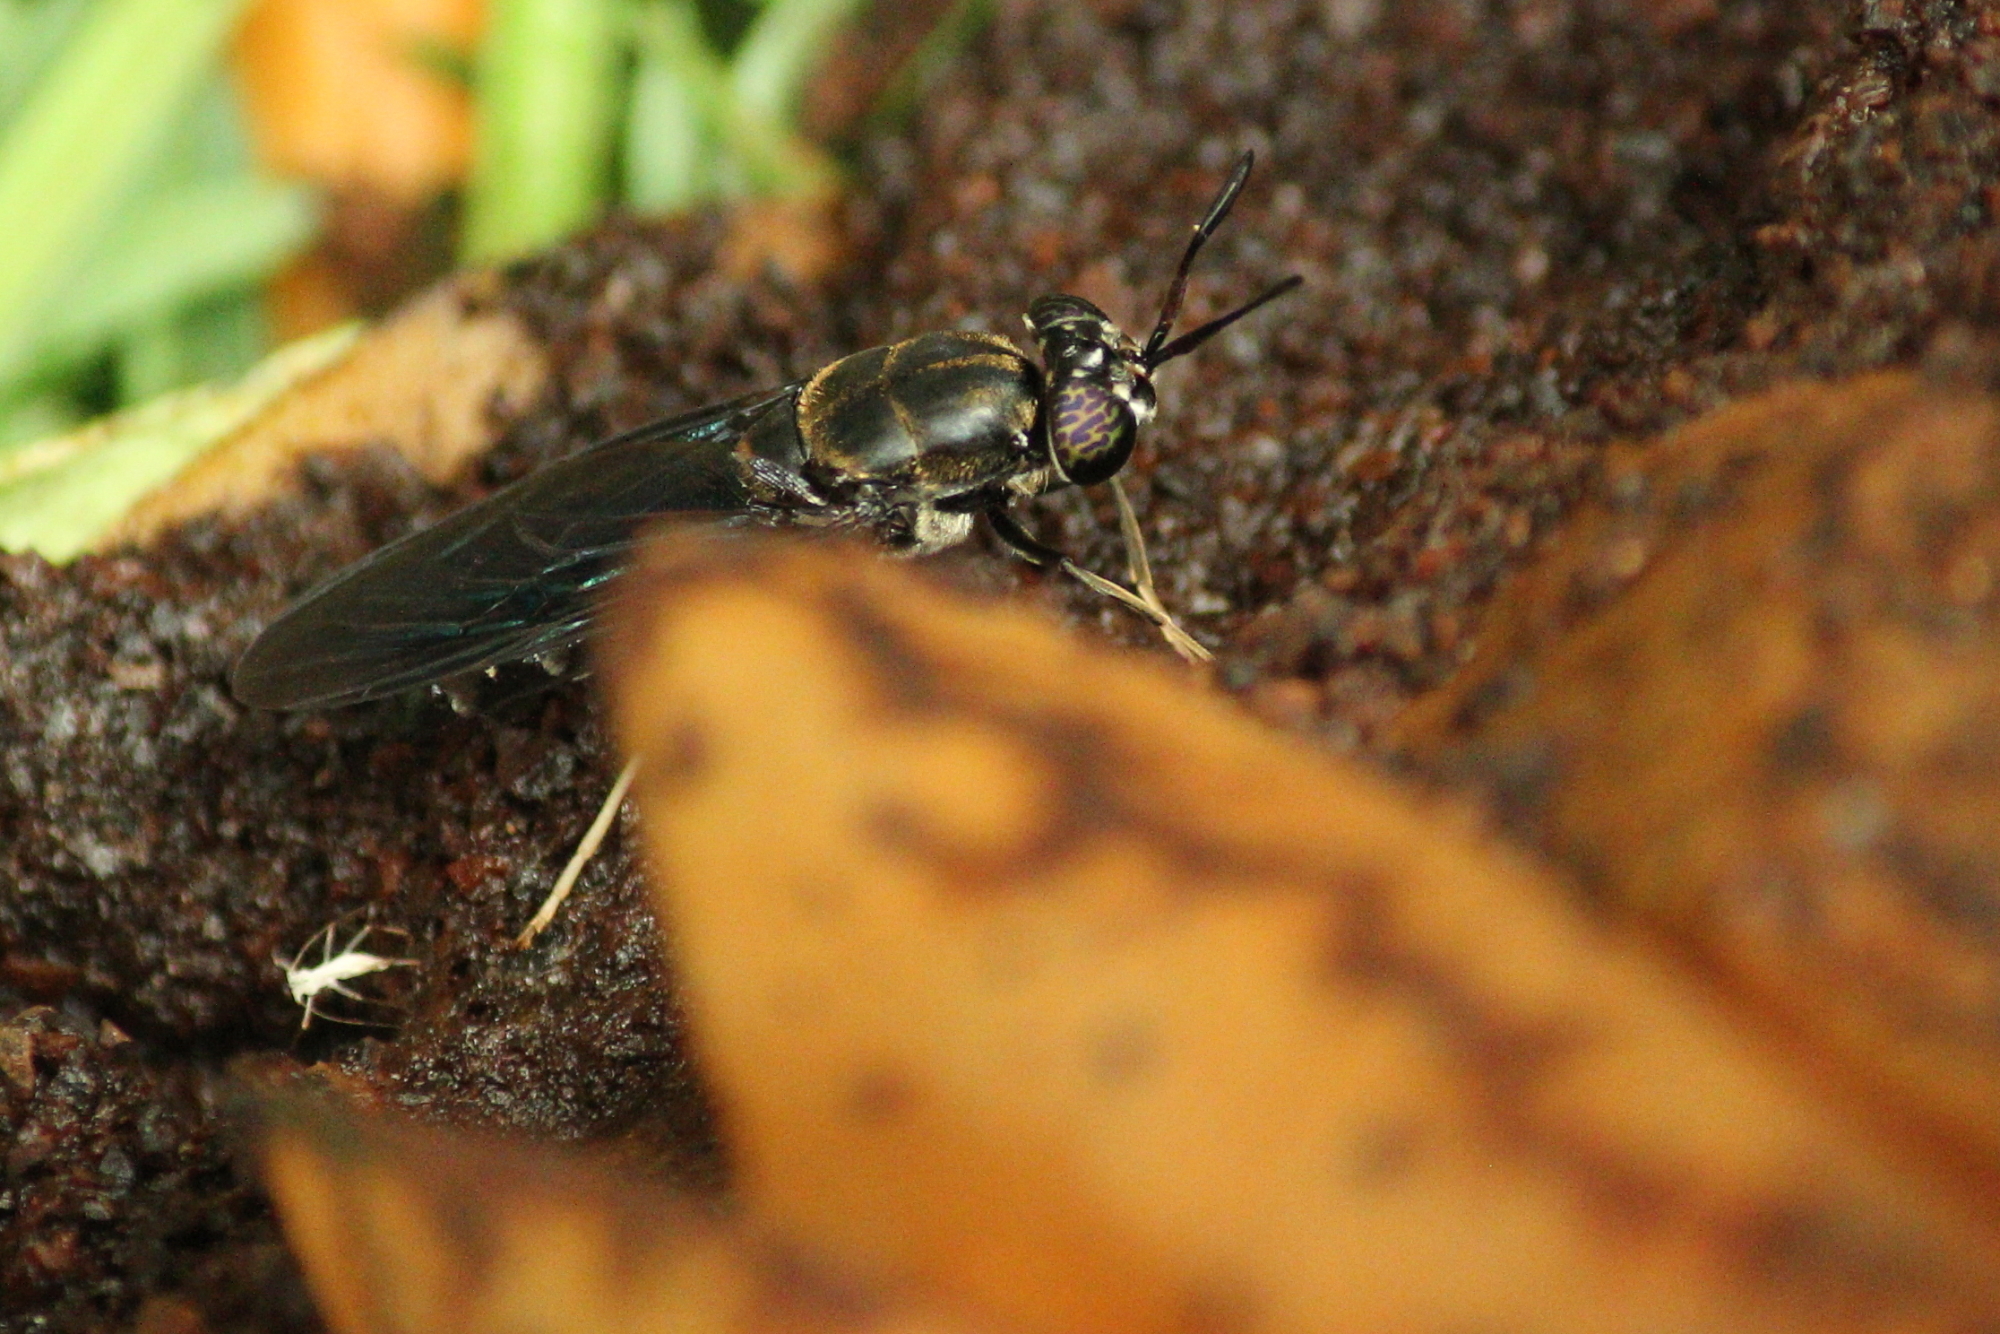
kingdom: Animalia
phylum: Arthropoda
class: Insecta
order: Diptera
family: Stratiomyidae
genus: Hermetia
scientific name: Hermetia illucens
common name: Black soldier fly
